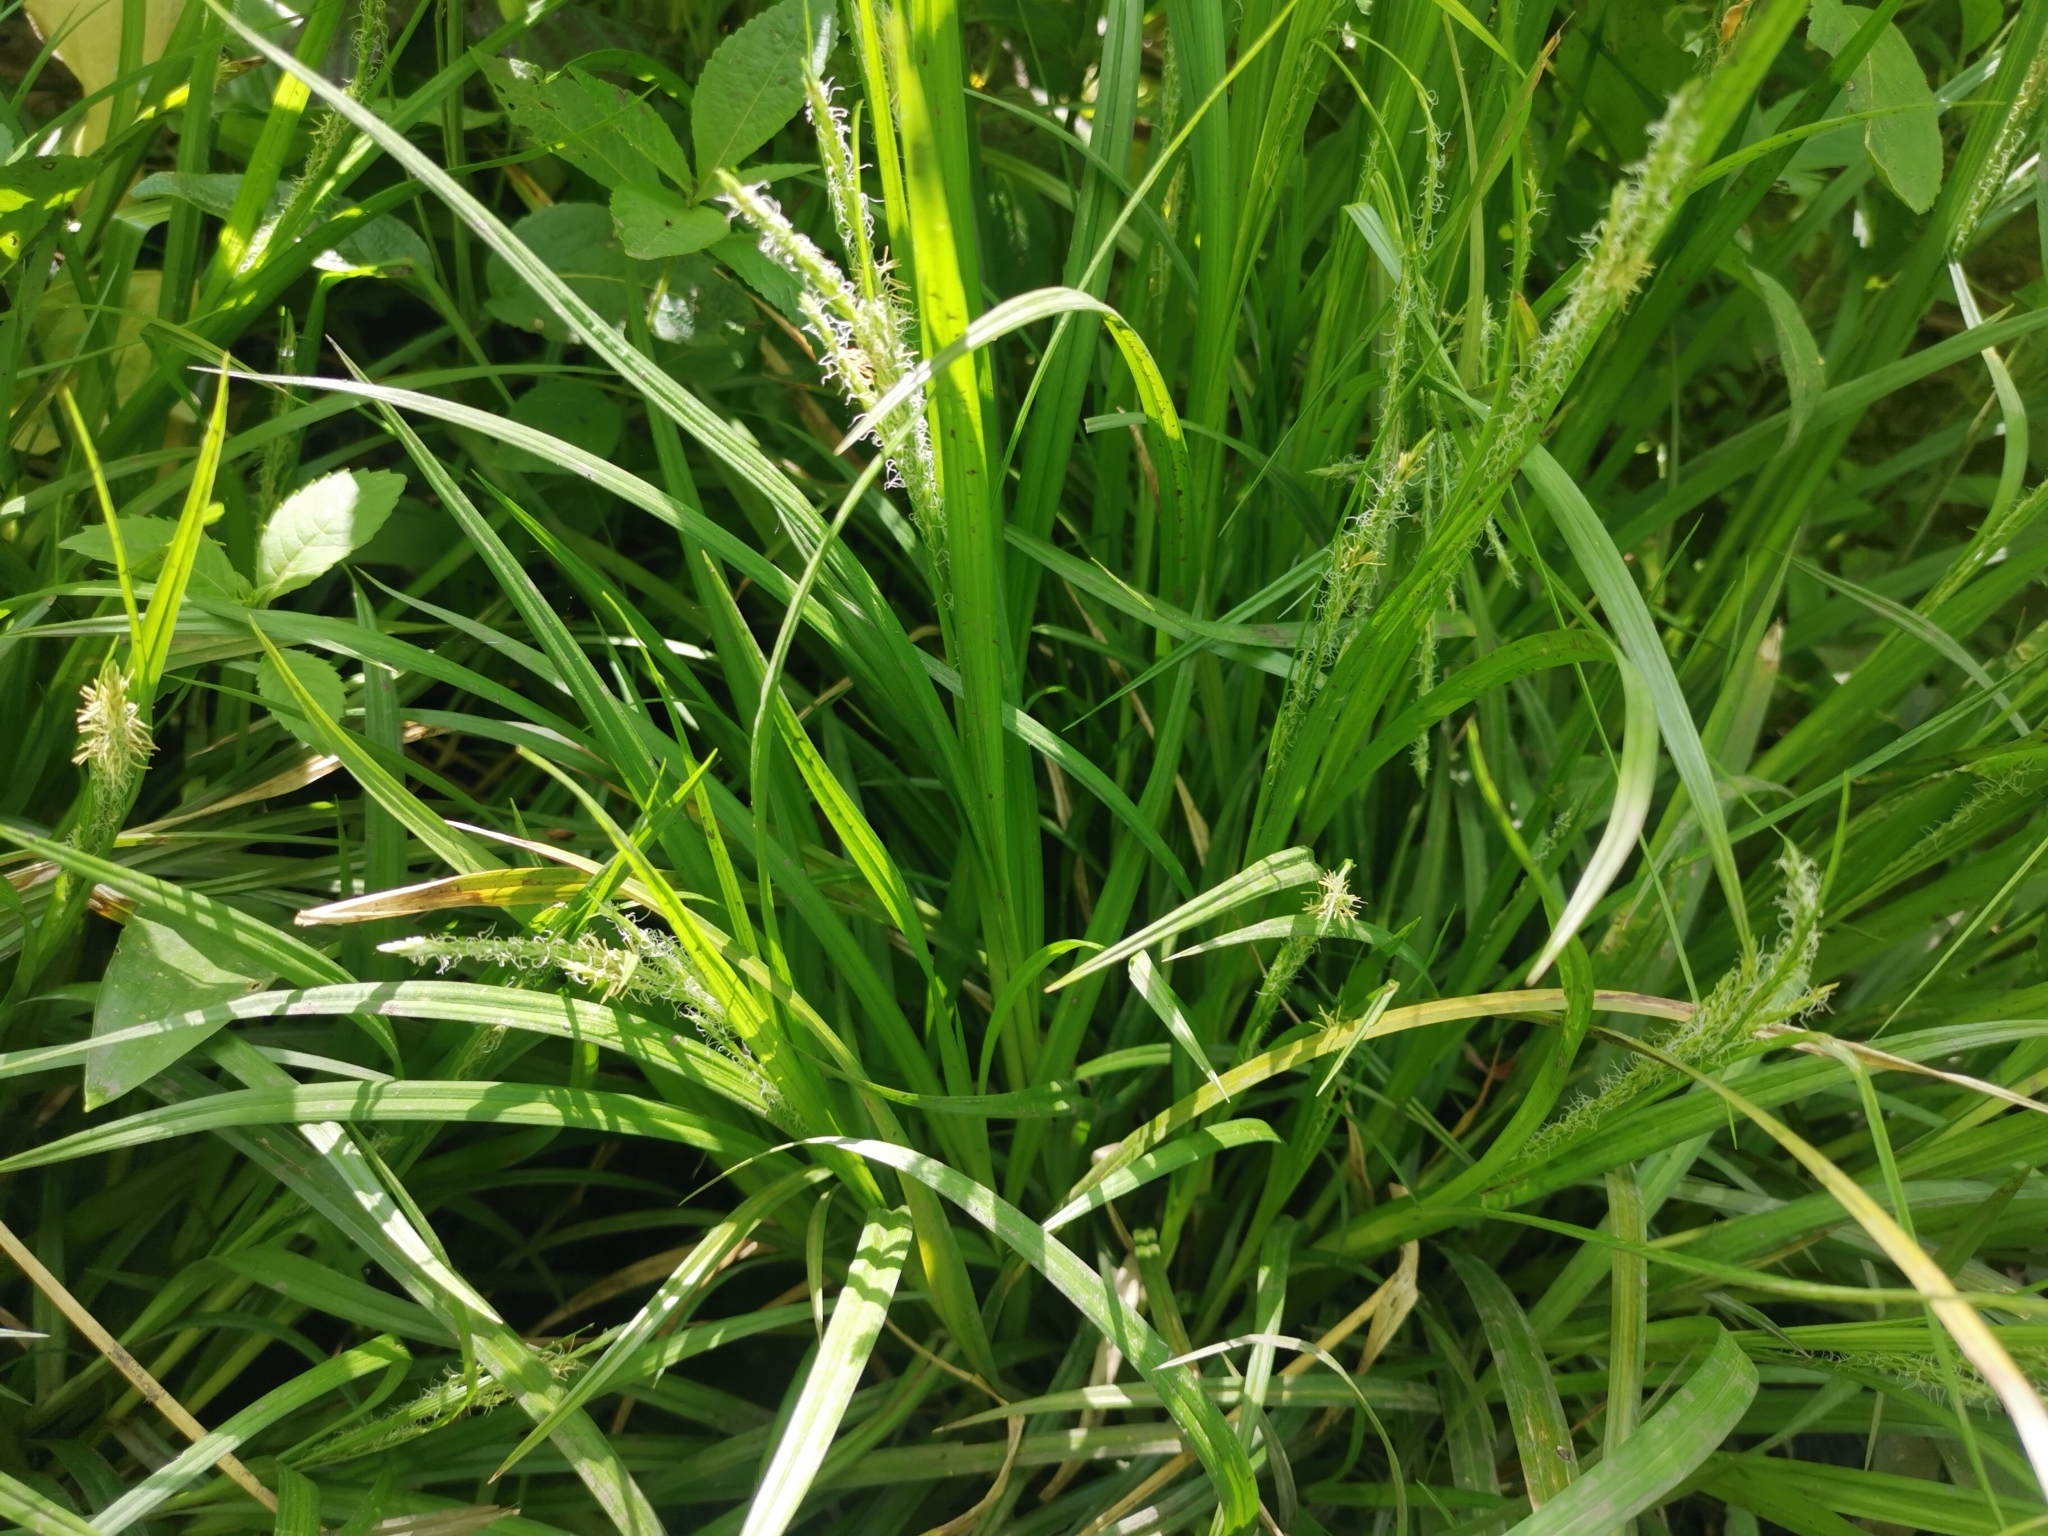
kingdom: Plantae
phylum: Tracheophyta
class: Liliopsida
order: Poales
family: Cyperaceae
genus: Carex
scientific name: Carex sylvatica
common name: Wood-sedge
